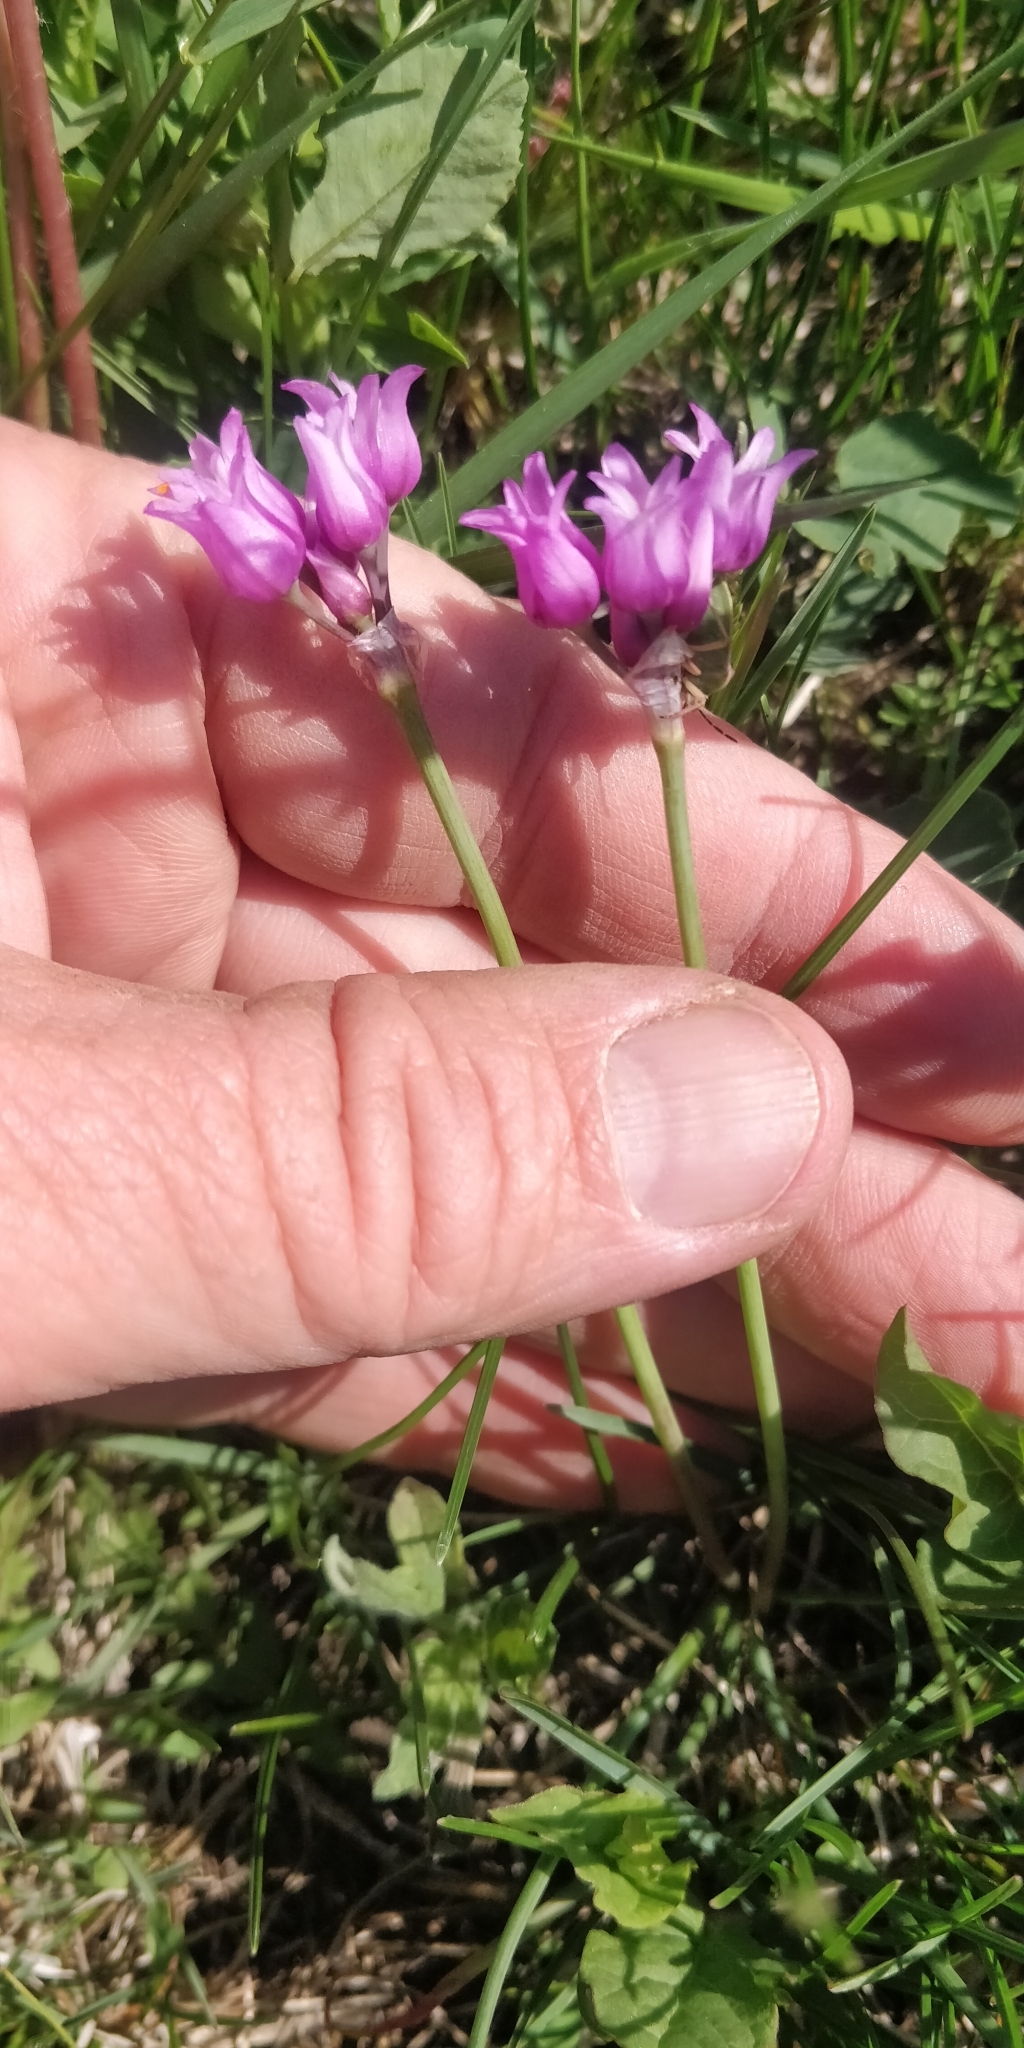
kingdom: Plantae
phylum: Tracheophyta
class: Liliopsida
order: Asparagales
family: Amaryllidaceae
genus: Allium
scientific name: Allium perdulce
